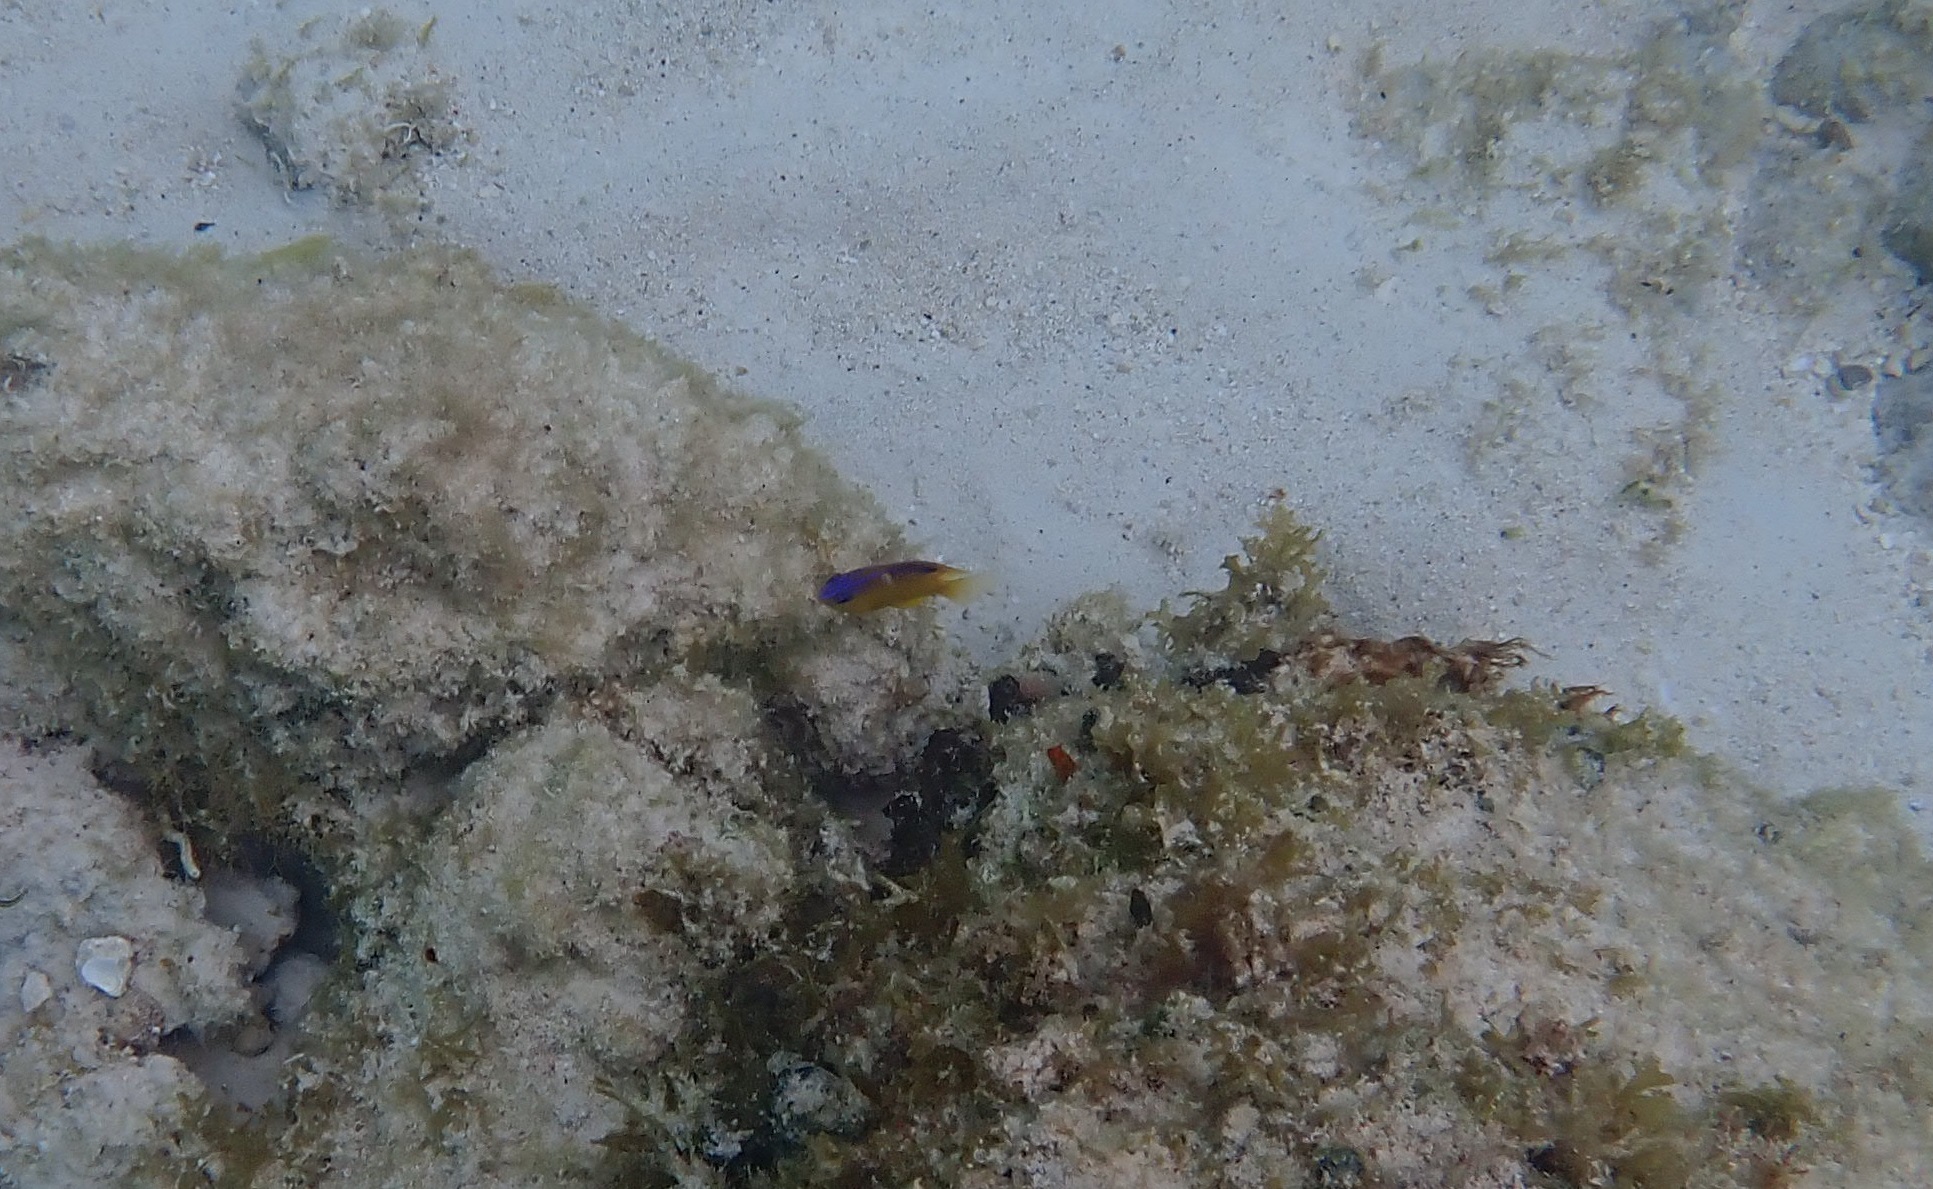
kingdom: Animalia
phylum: Chordata
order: Perciformes
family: Pomacentridae
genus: Stegastes
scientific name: Stegastes diencaeus
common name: Longfin damselfish
